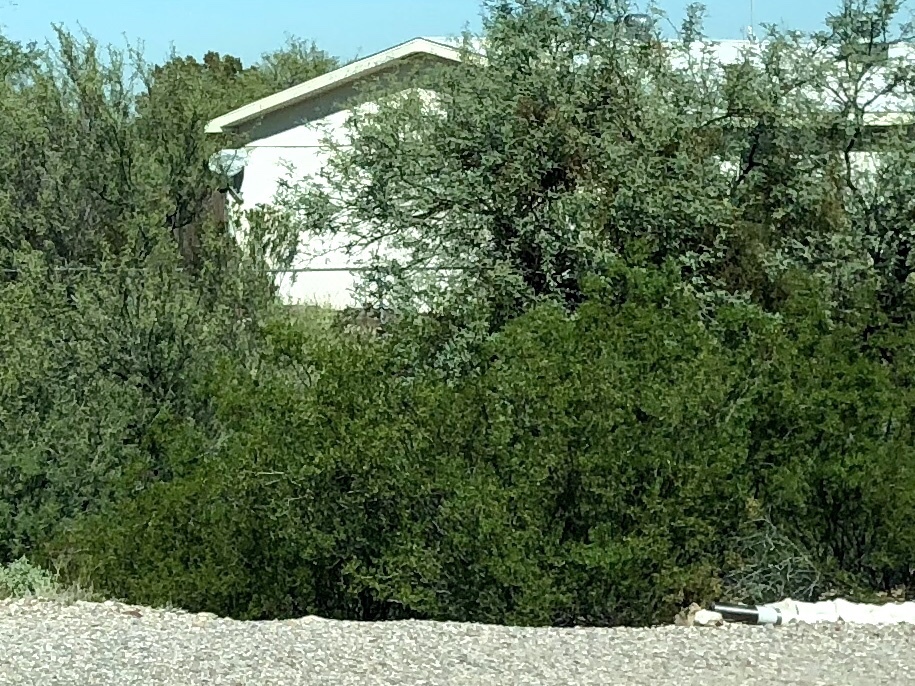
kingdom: Plantae
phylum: Tracheophyta
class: Magnoliopsida
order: Zygophyllales
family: Zygophyllaceae
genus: Larrea
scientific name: Larrea tridentata
